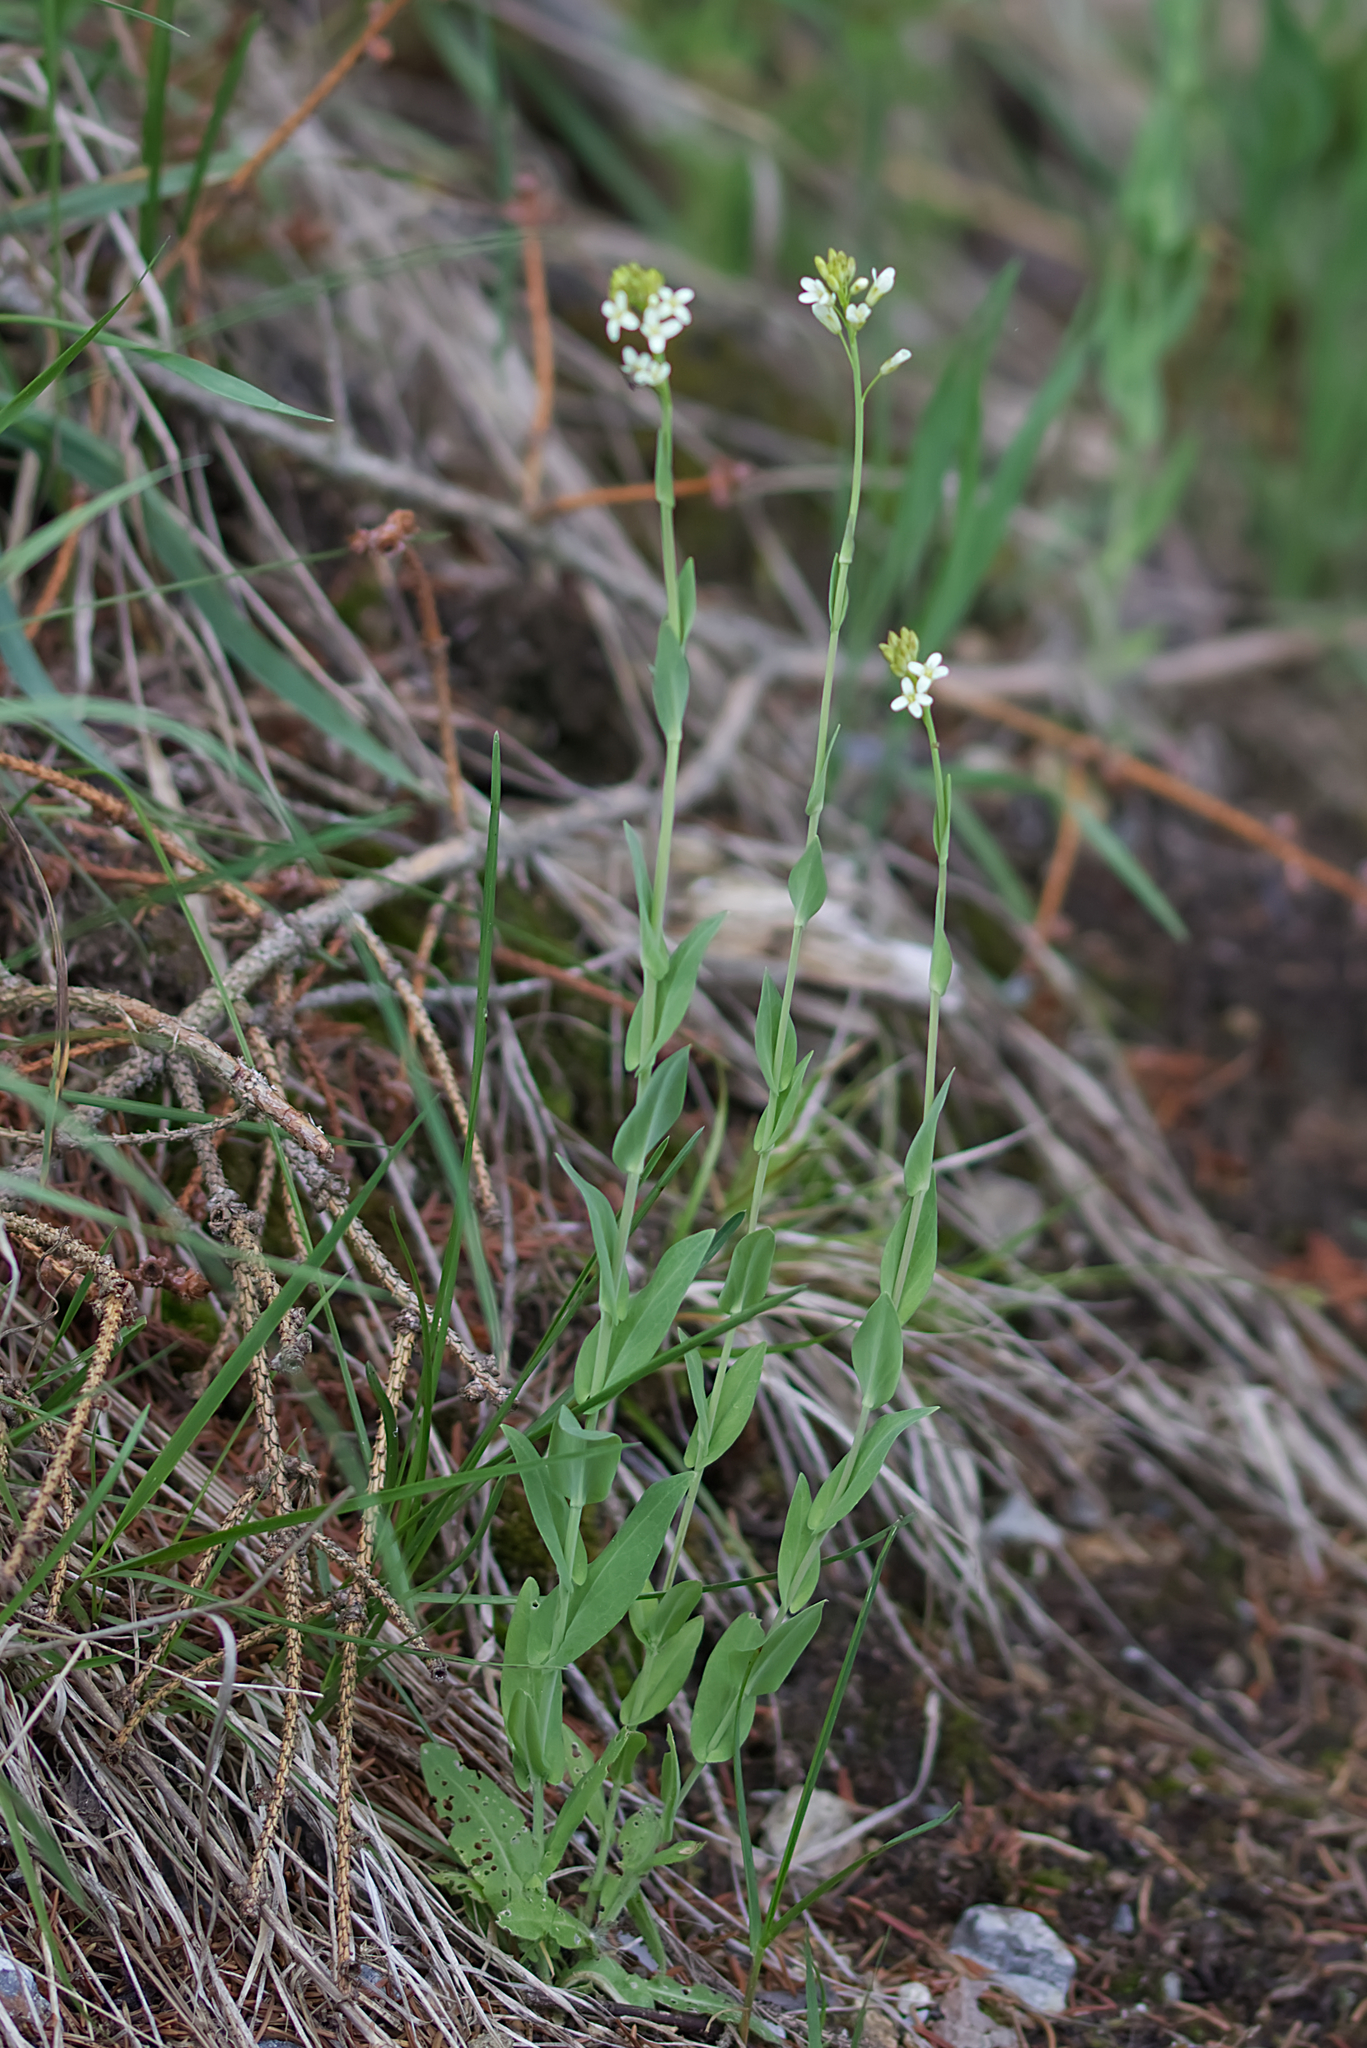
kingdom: Plantae
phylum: Tracheophyta
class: Magnoliopsida
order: Brassicales
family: Brassicaceae
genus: Turritis
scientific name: Turritis glabra
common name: Tower rockcress
